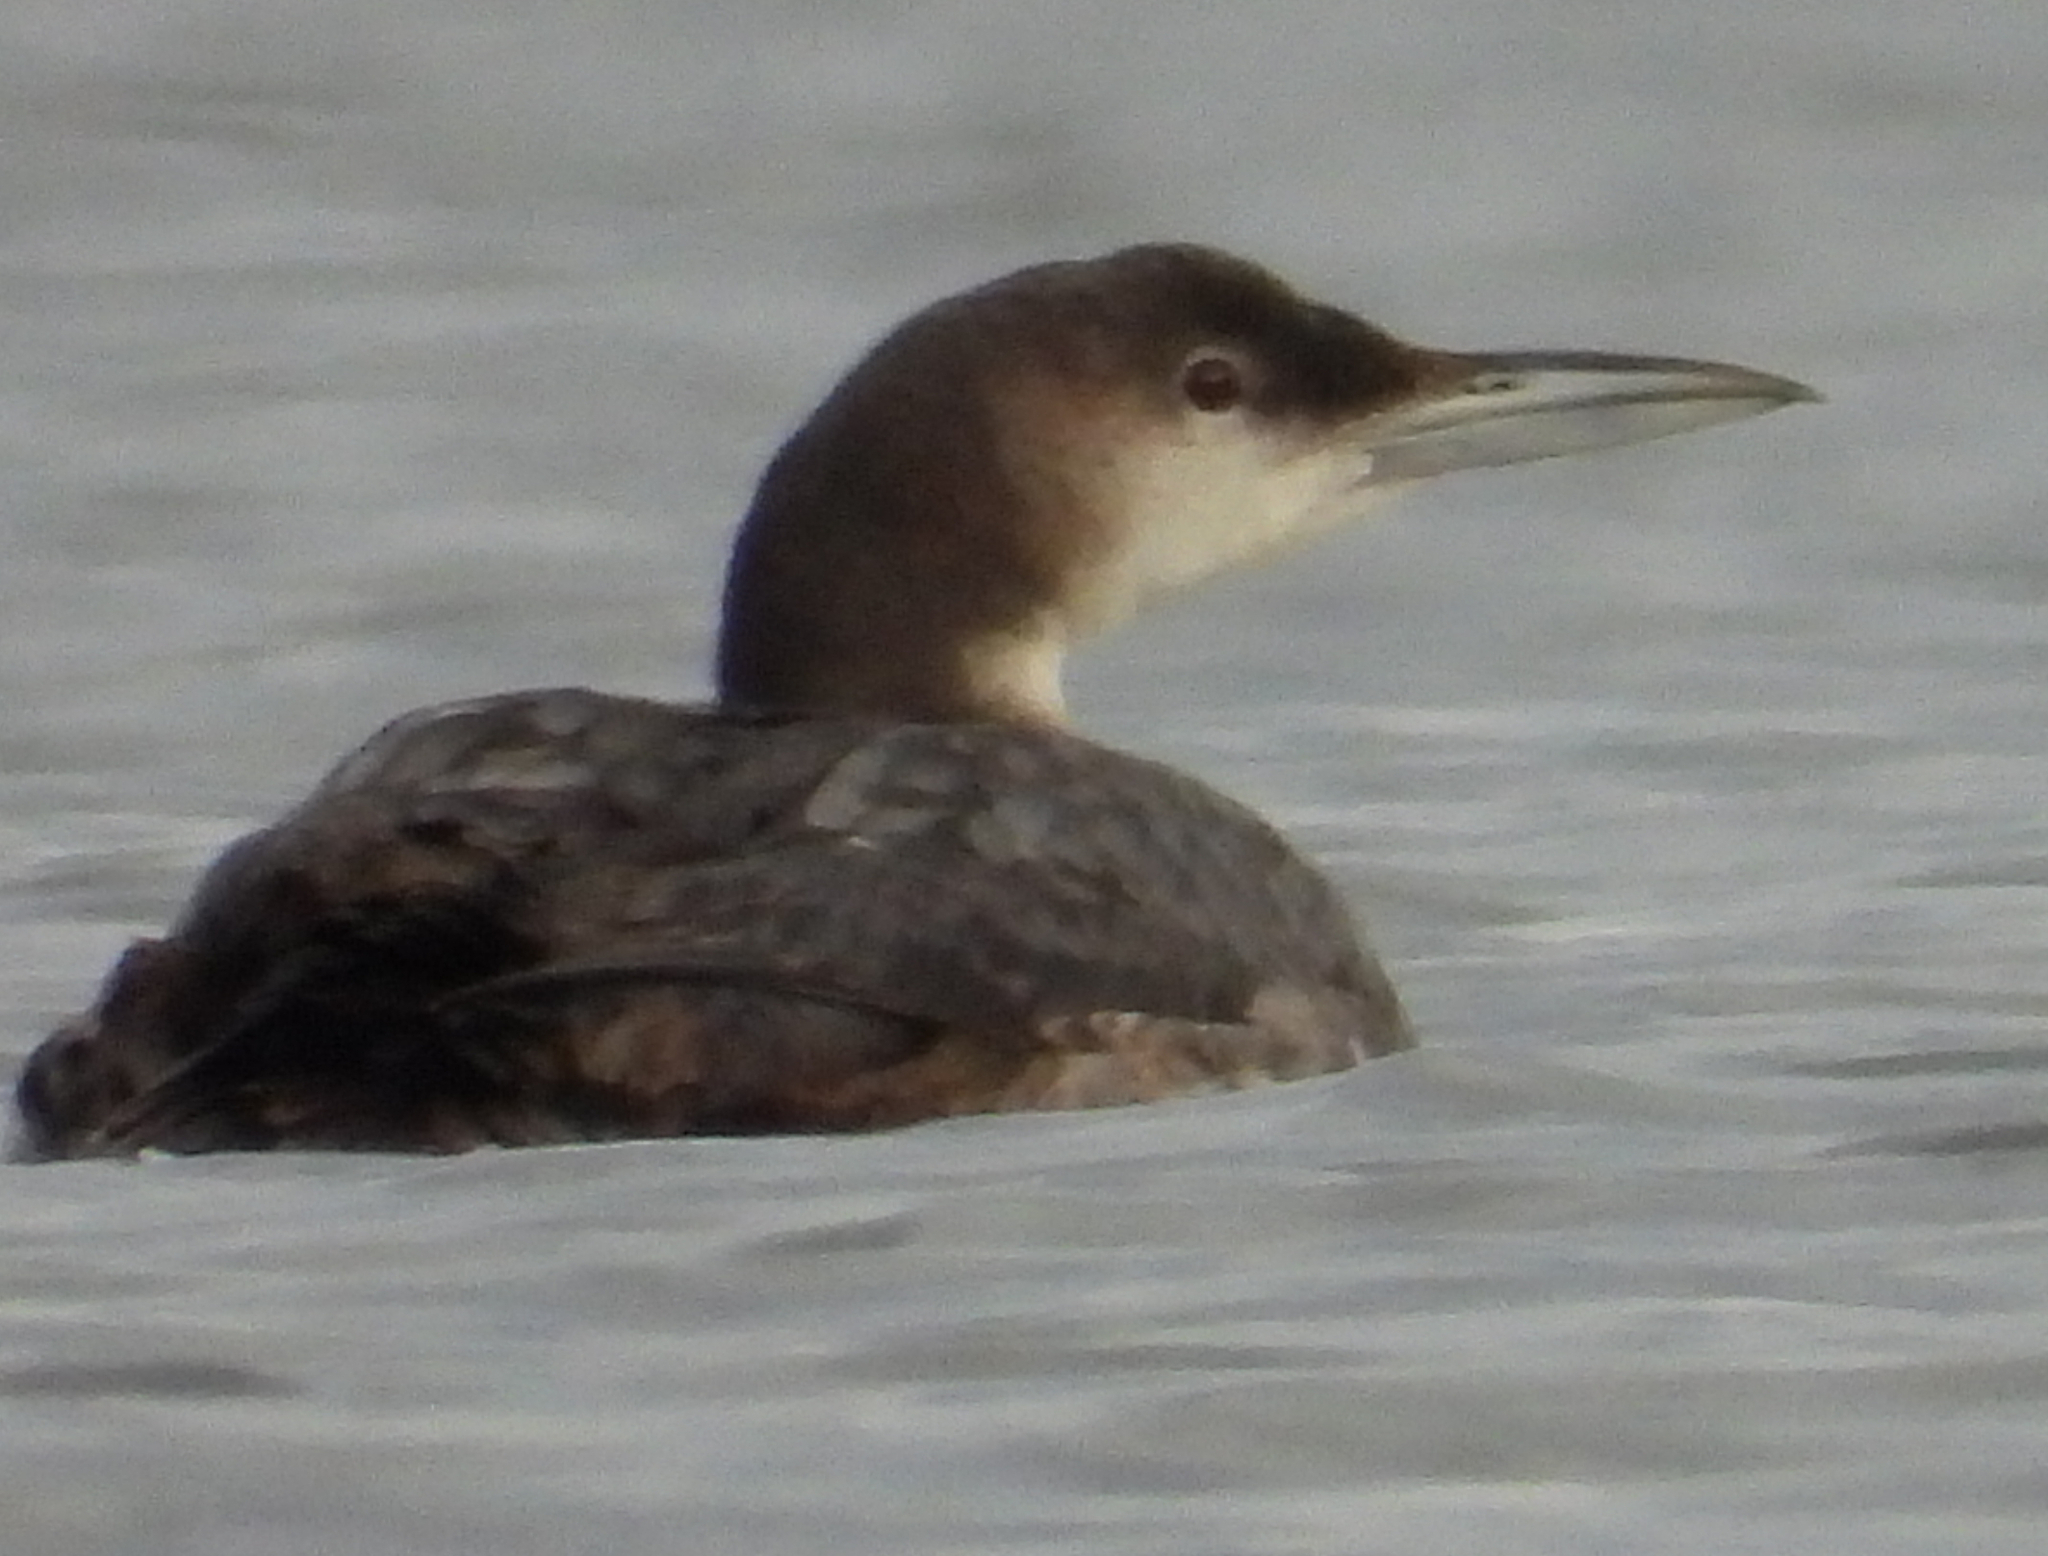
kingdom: Animalia
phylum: Chordata
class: Aves
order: Gaviiformes
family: Gaviidae
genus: Gavia
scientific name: Gavia immer
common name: Common loon
